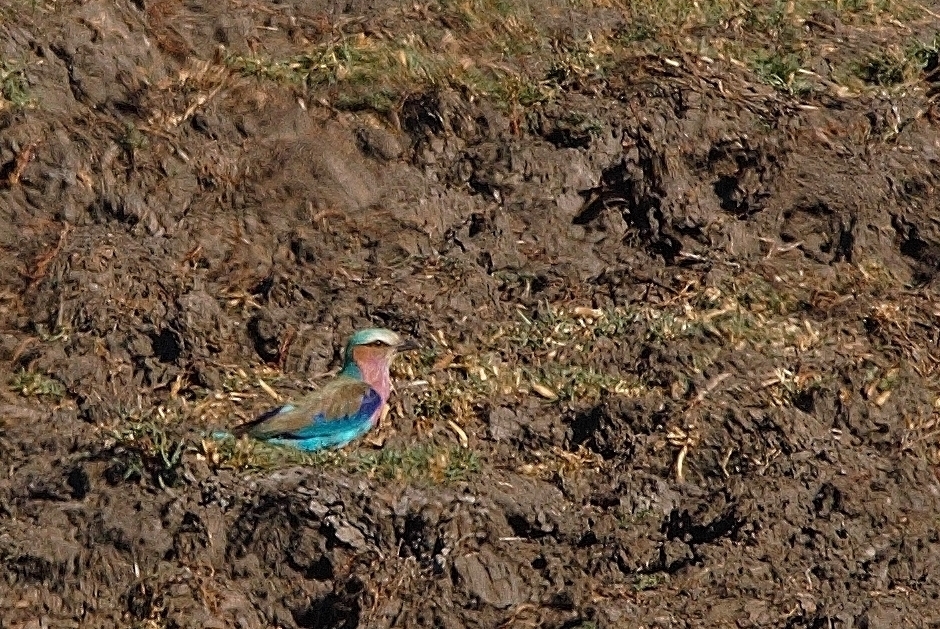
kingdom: Animalia
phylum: Chordata
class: Aves
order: Coraciiformes
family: Coraciidae
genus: Coracias
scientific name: Coracias caudatus
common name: Lilac-breasted roller
